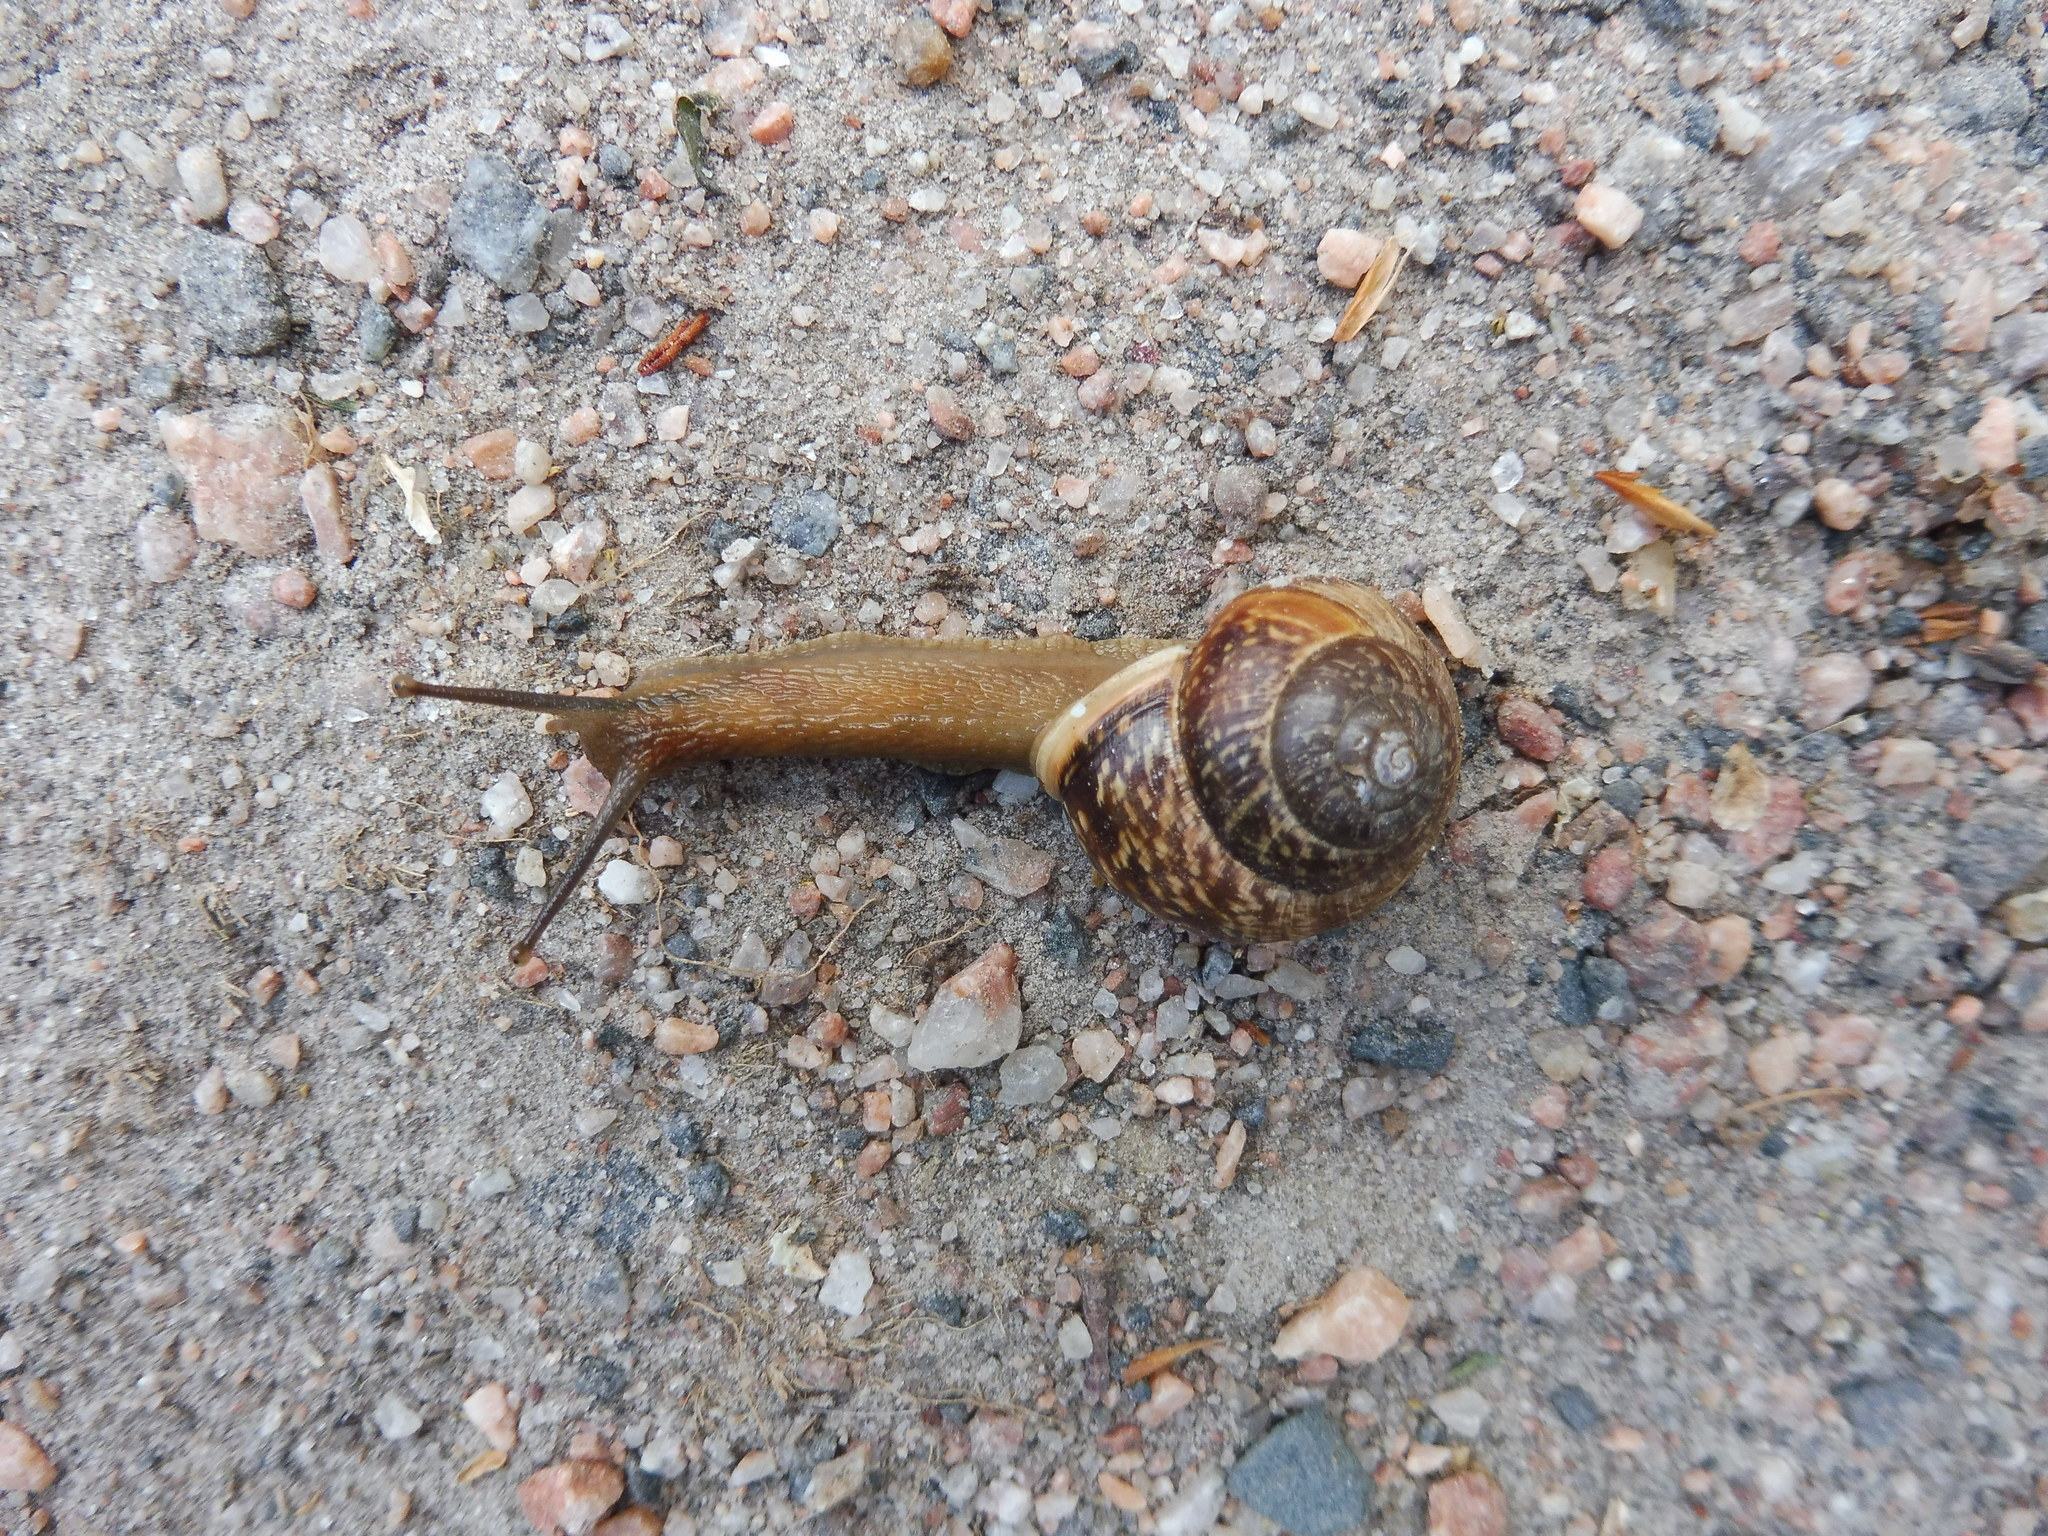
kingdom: Animalia
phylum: Mollusca
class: Gastropoda
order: Stylommatophora
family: Helicidae
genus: Arianta
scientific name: Arianta arbustorum
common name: Copse snail
